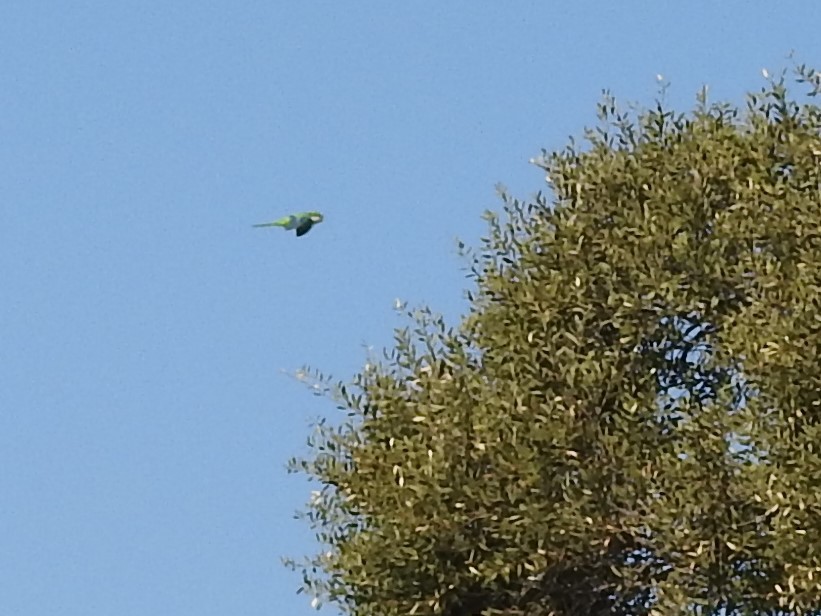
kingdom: Animalia
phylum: Chordata
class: Aves
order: Psittaciformes
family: Psittacidae
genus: Myiopsitta
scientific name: Myiopsitta monachus
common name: Monk parakeet
